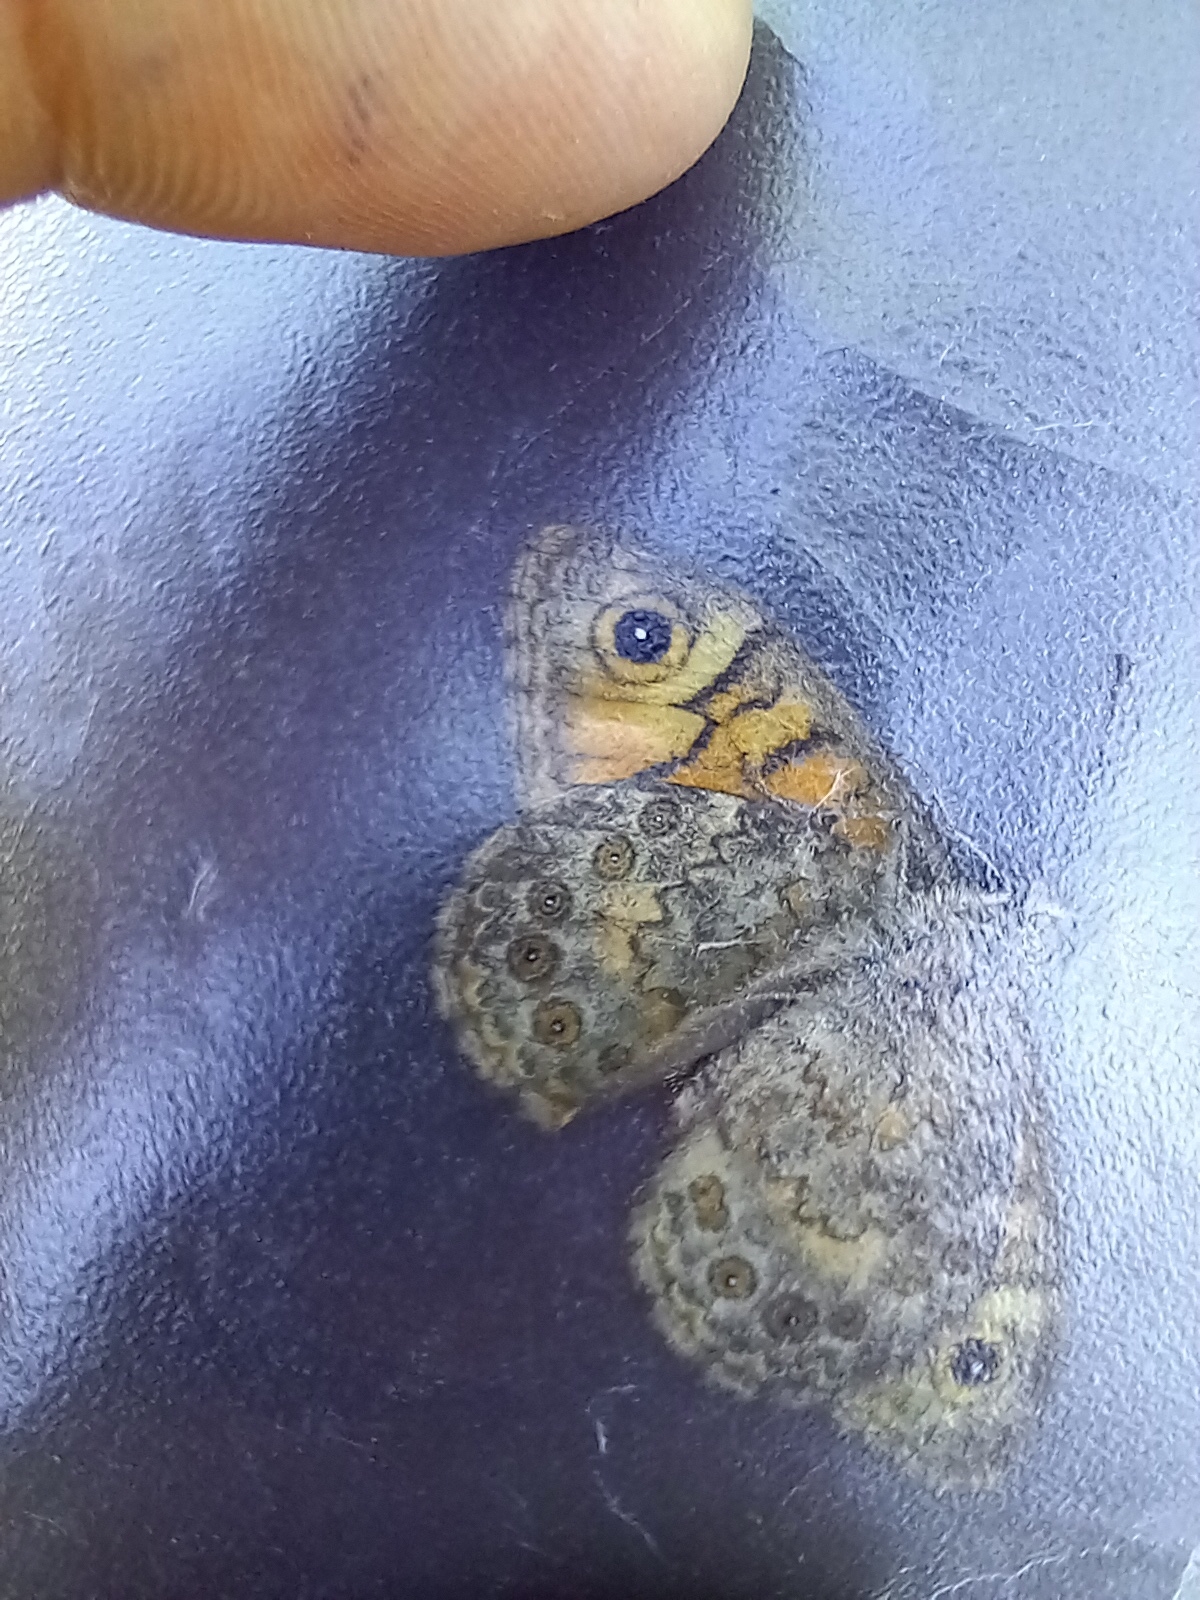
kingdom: Animalia
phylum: Arthropoda
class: Insecta
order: Lepidoptera
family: Nymphalidae
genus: Pararge
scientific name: Pararge Lasiommata megera
